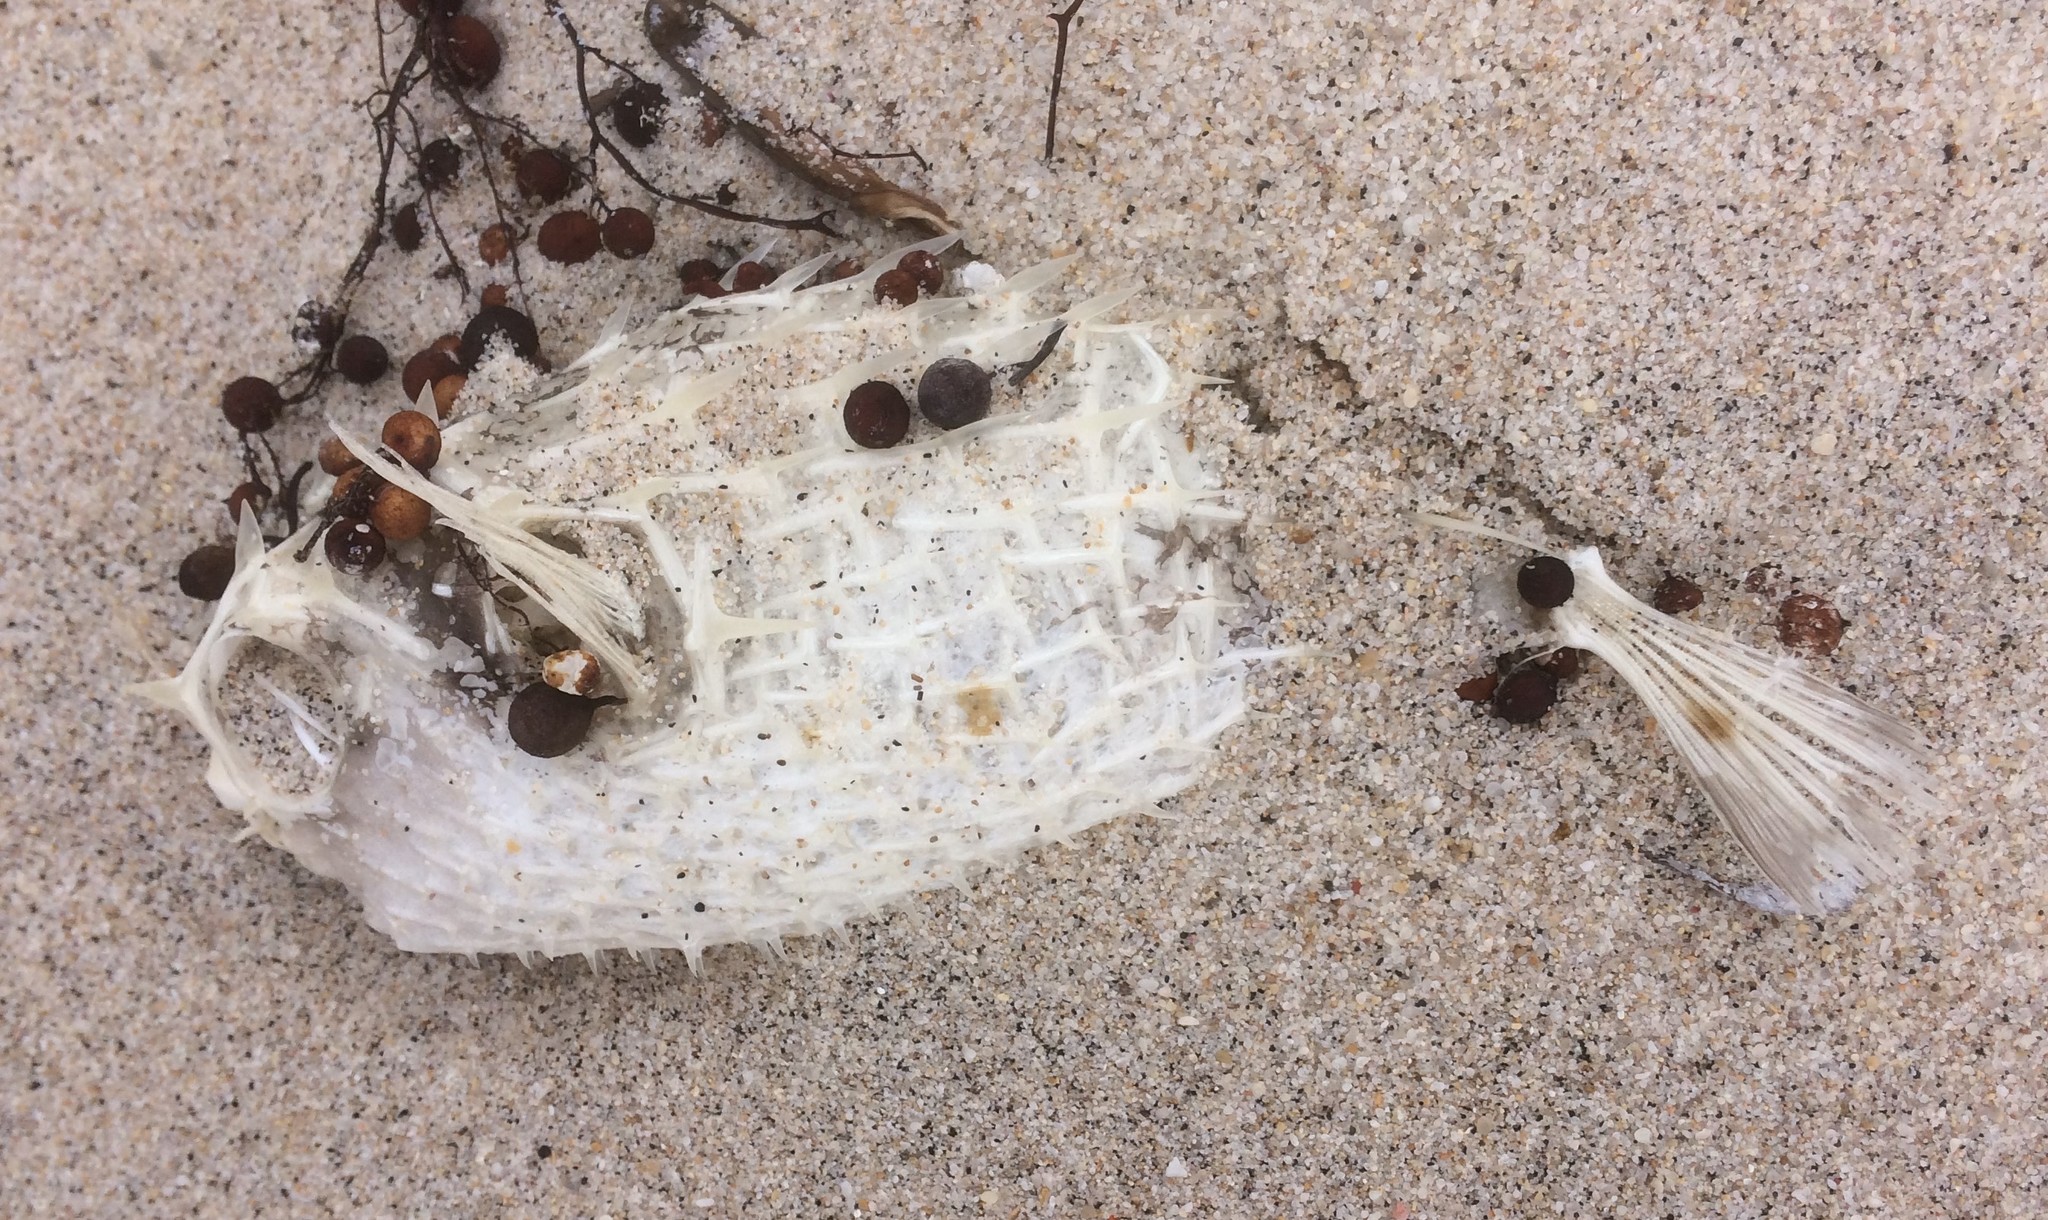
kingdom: Animalia
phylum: Chordata
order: Tetraodontiformes
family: Diodontidae
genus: Allomycterus
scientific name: Allomycterus pilatus
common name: No common name
